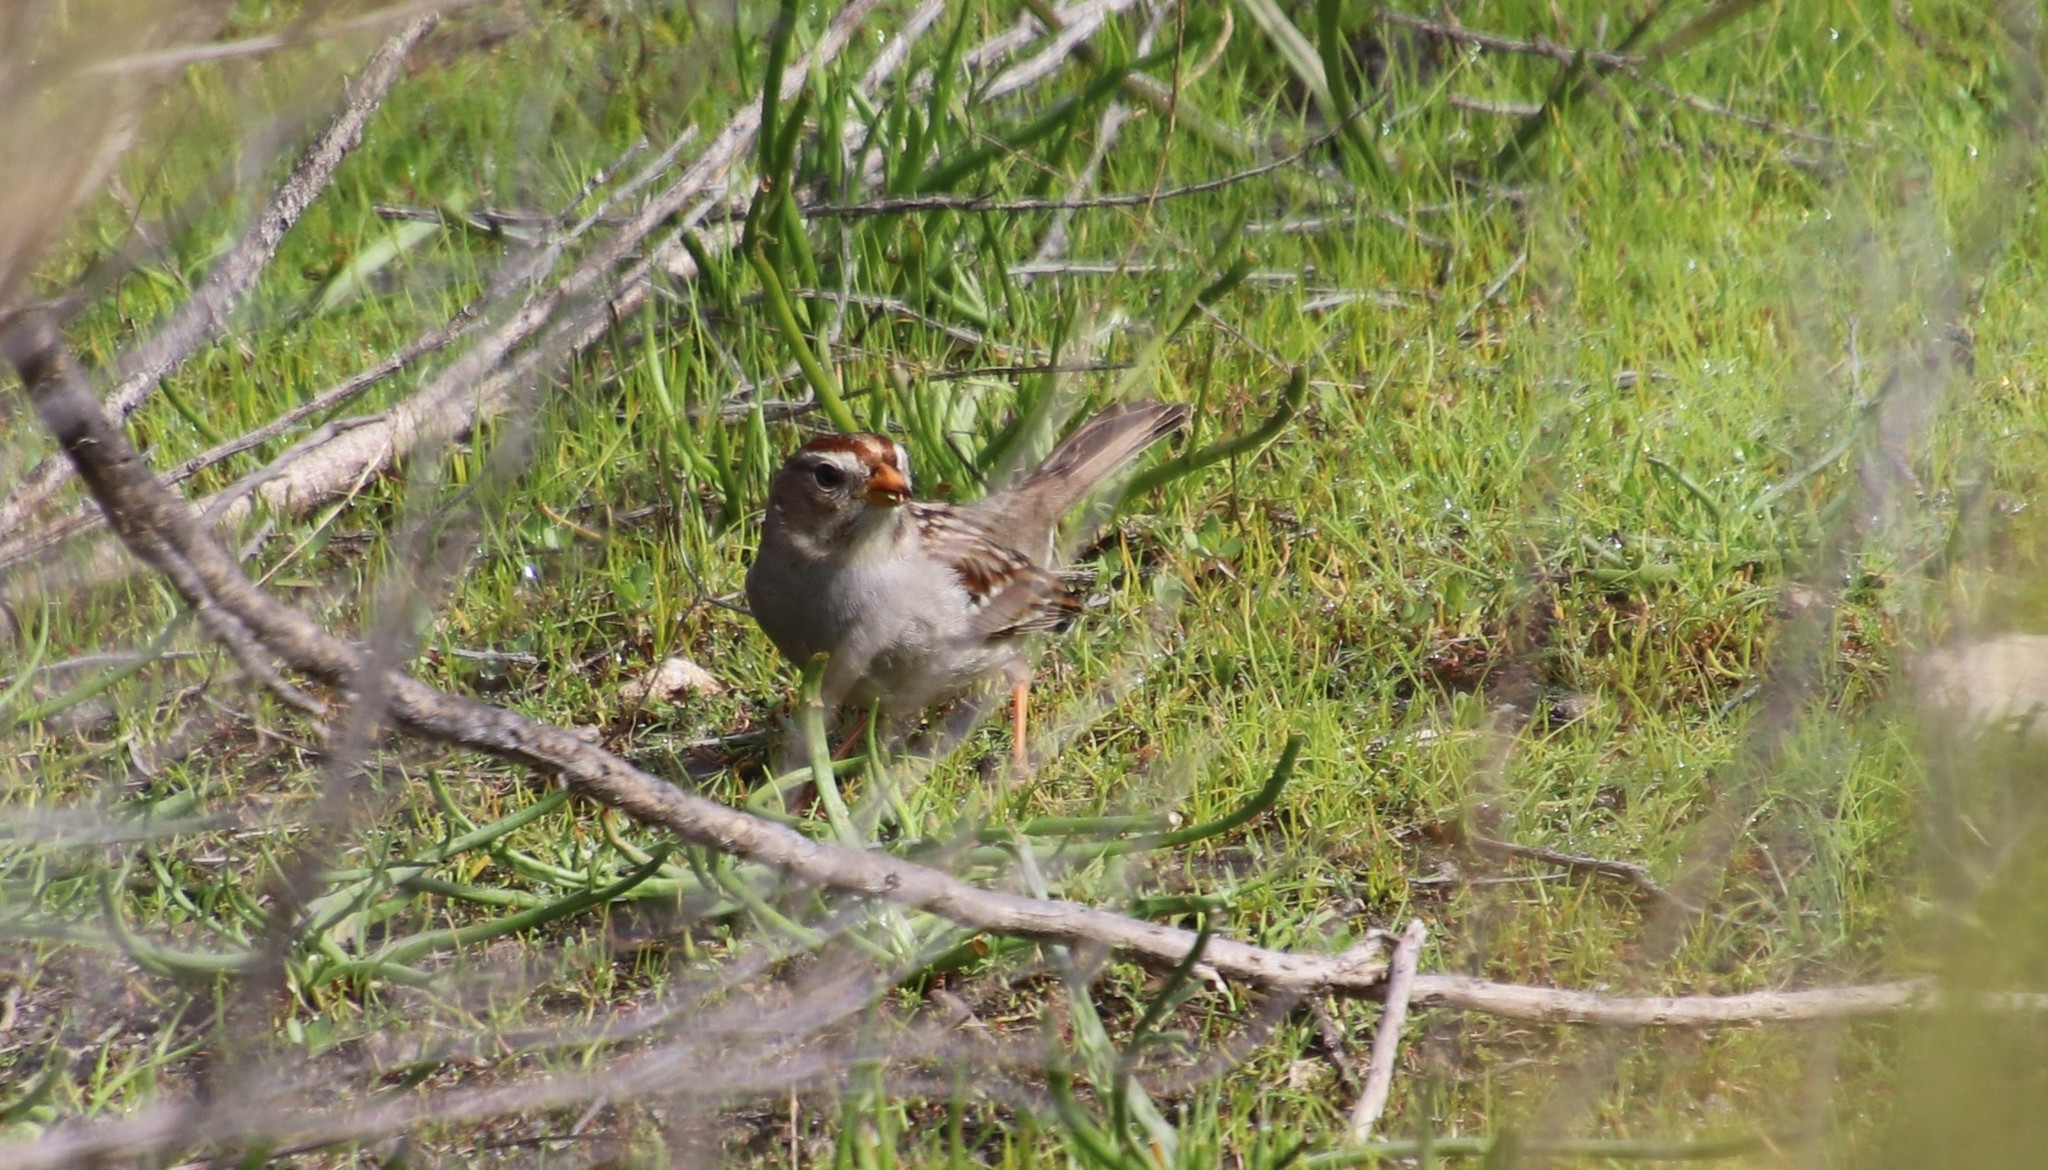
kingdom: Animalia
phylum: Chordata
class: Aves
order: Passeriformes
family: Passerellidae
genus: Zonotrichia
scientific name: Zonotrichia leucophrys
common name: White-crowned sparrow
